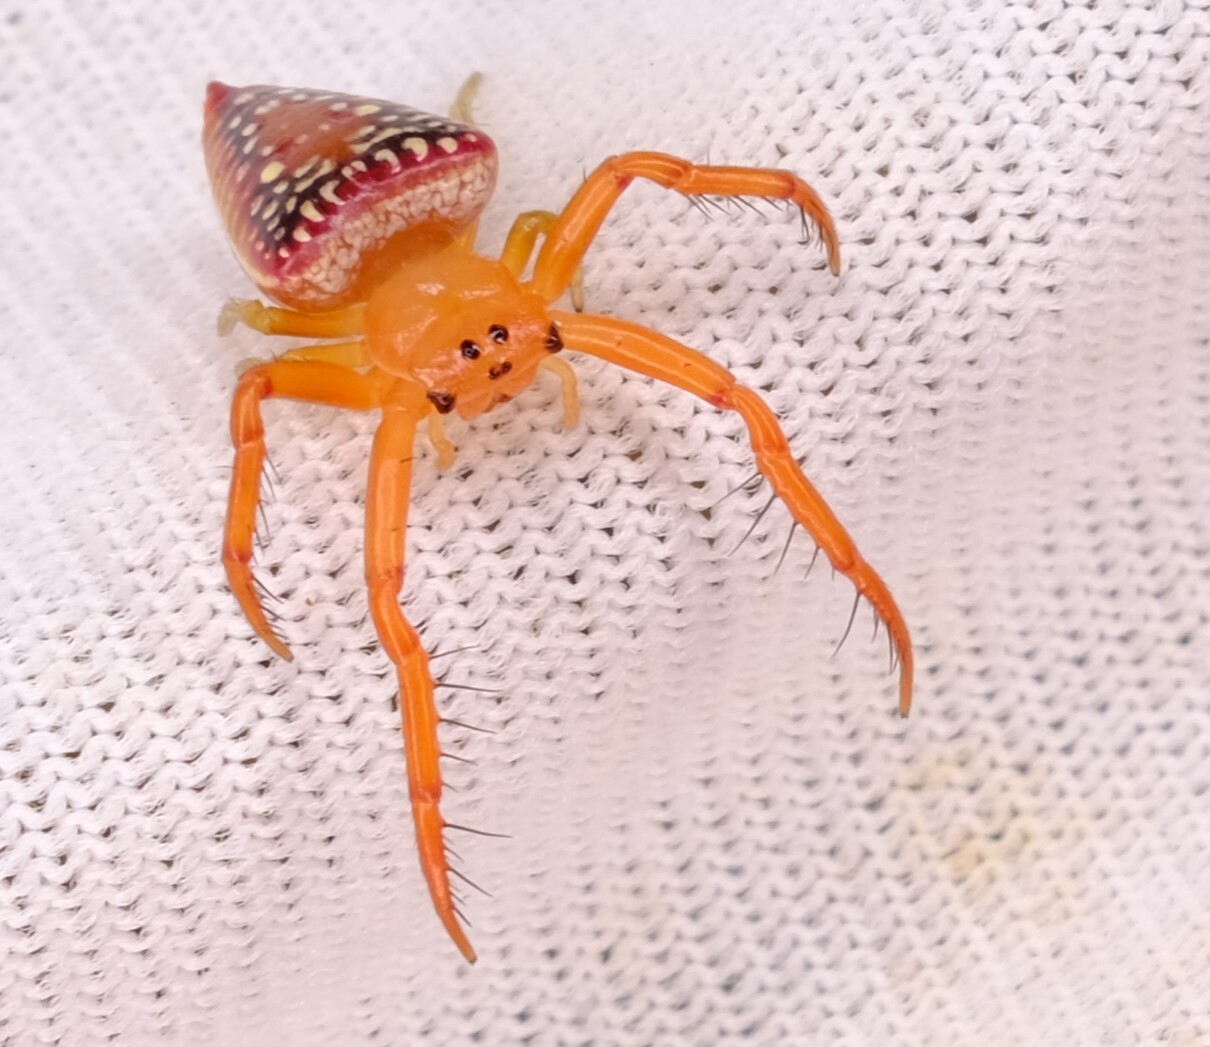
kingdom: Animalia
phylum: Arthropoda
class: Arachnida
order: Araneae
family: Arkyidae
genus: Arkys
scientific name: Arkys walckenaeri
